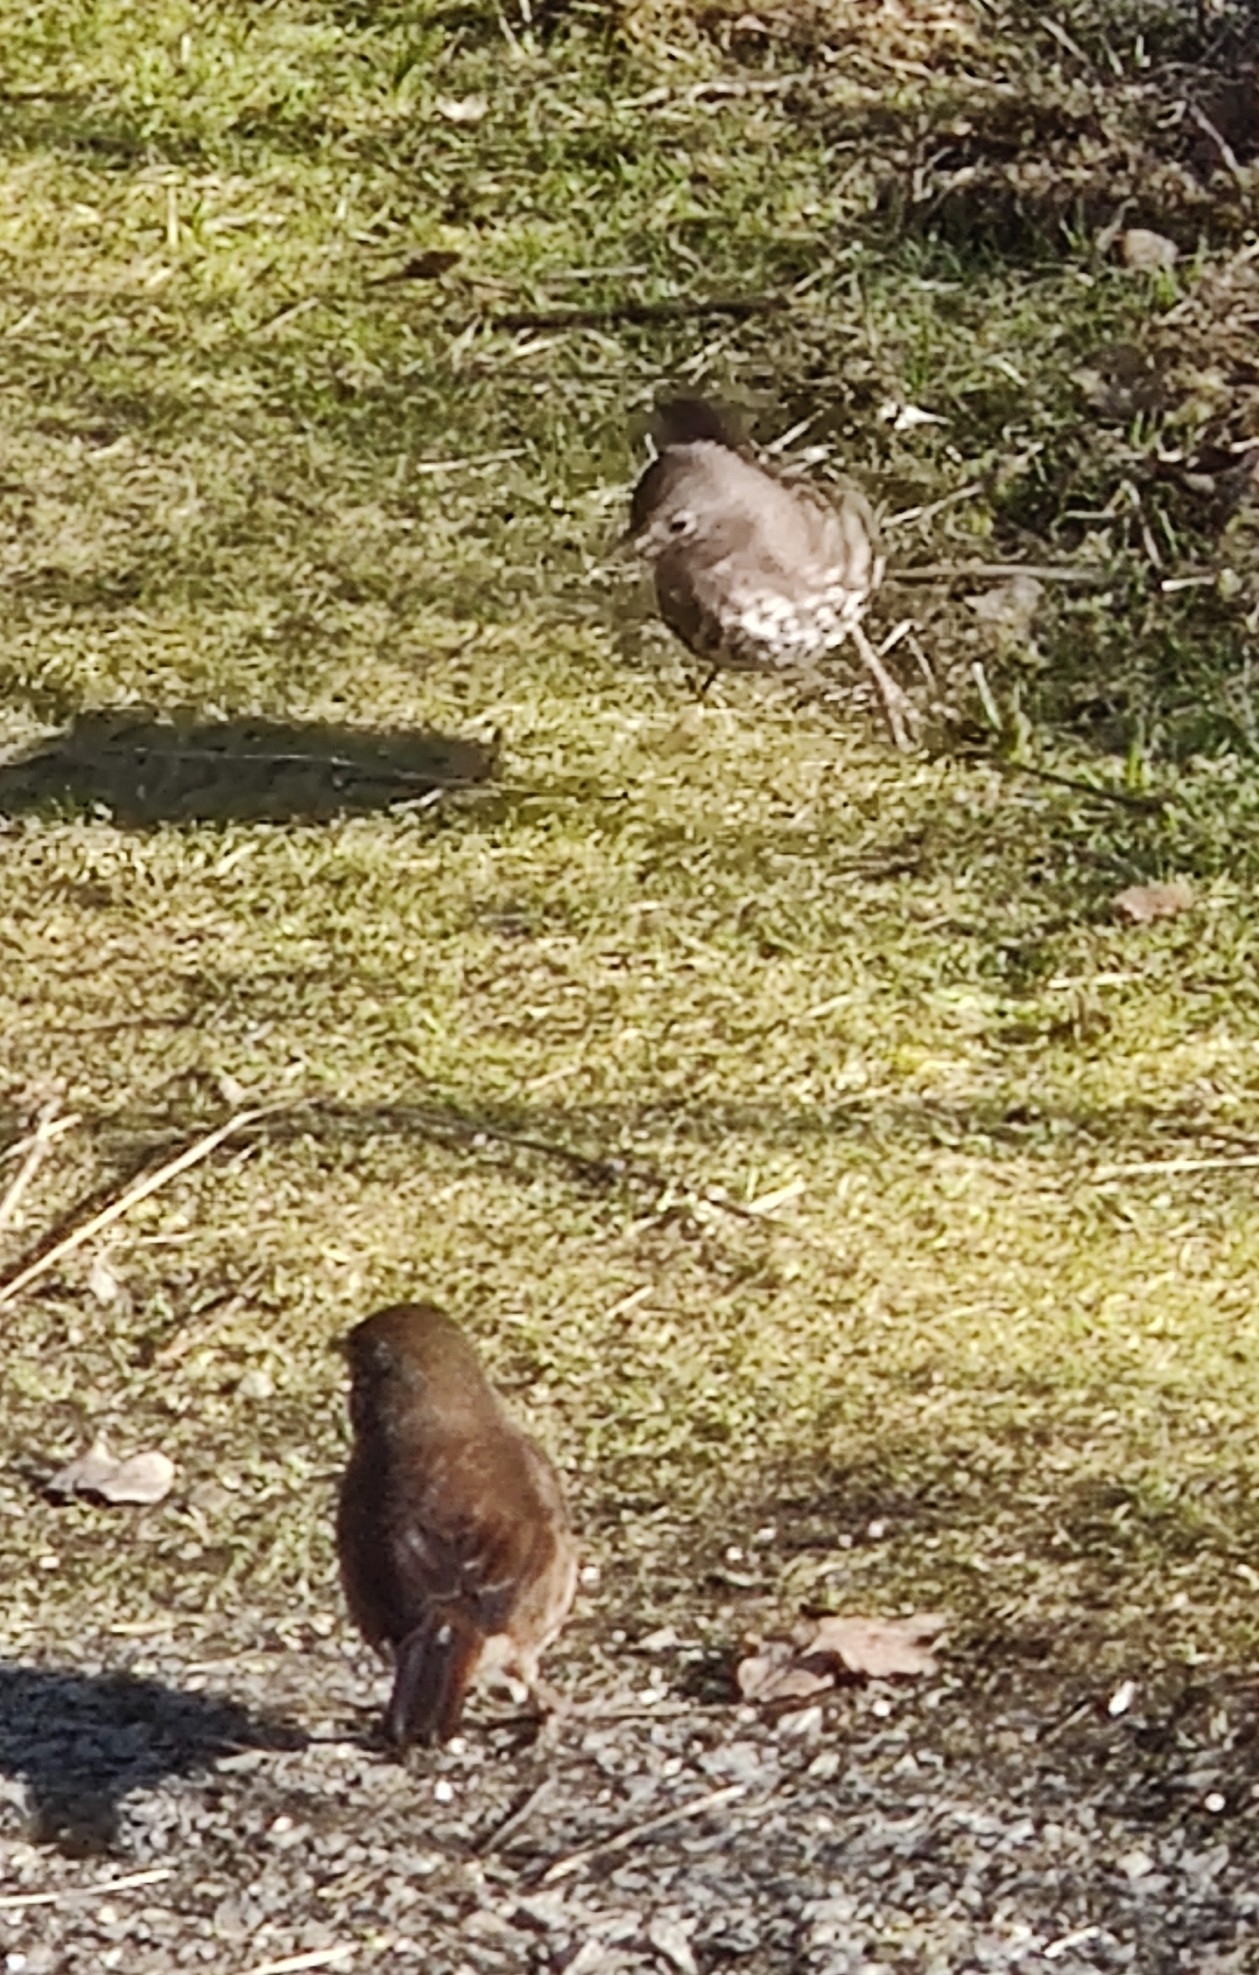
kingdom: Animalia
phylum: Chordata
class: Aves
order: Passeriformes
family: Passerellidae
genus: Passerella
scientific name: Passerella iliaca
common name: Fox sparrow
